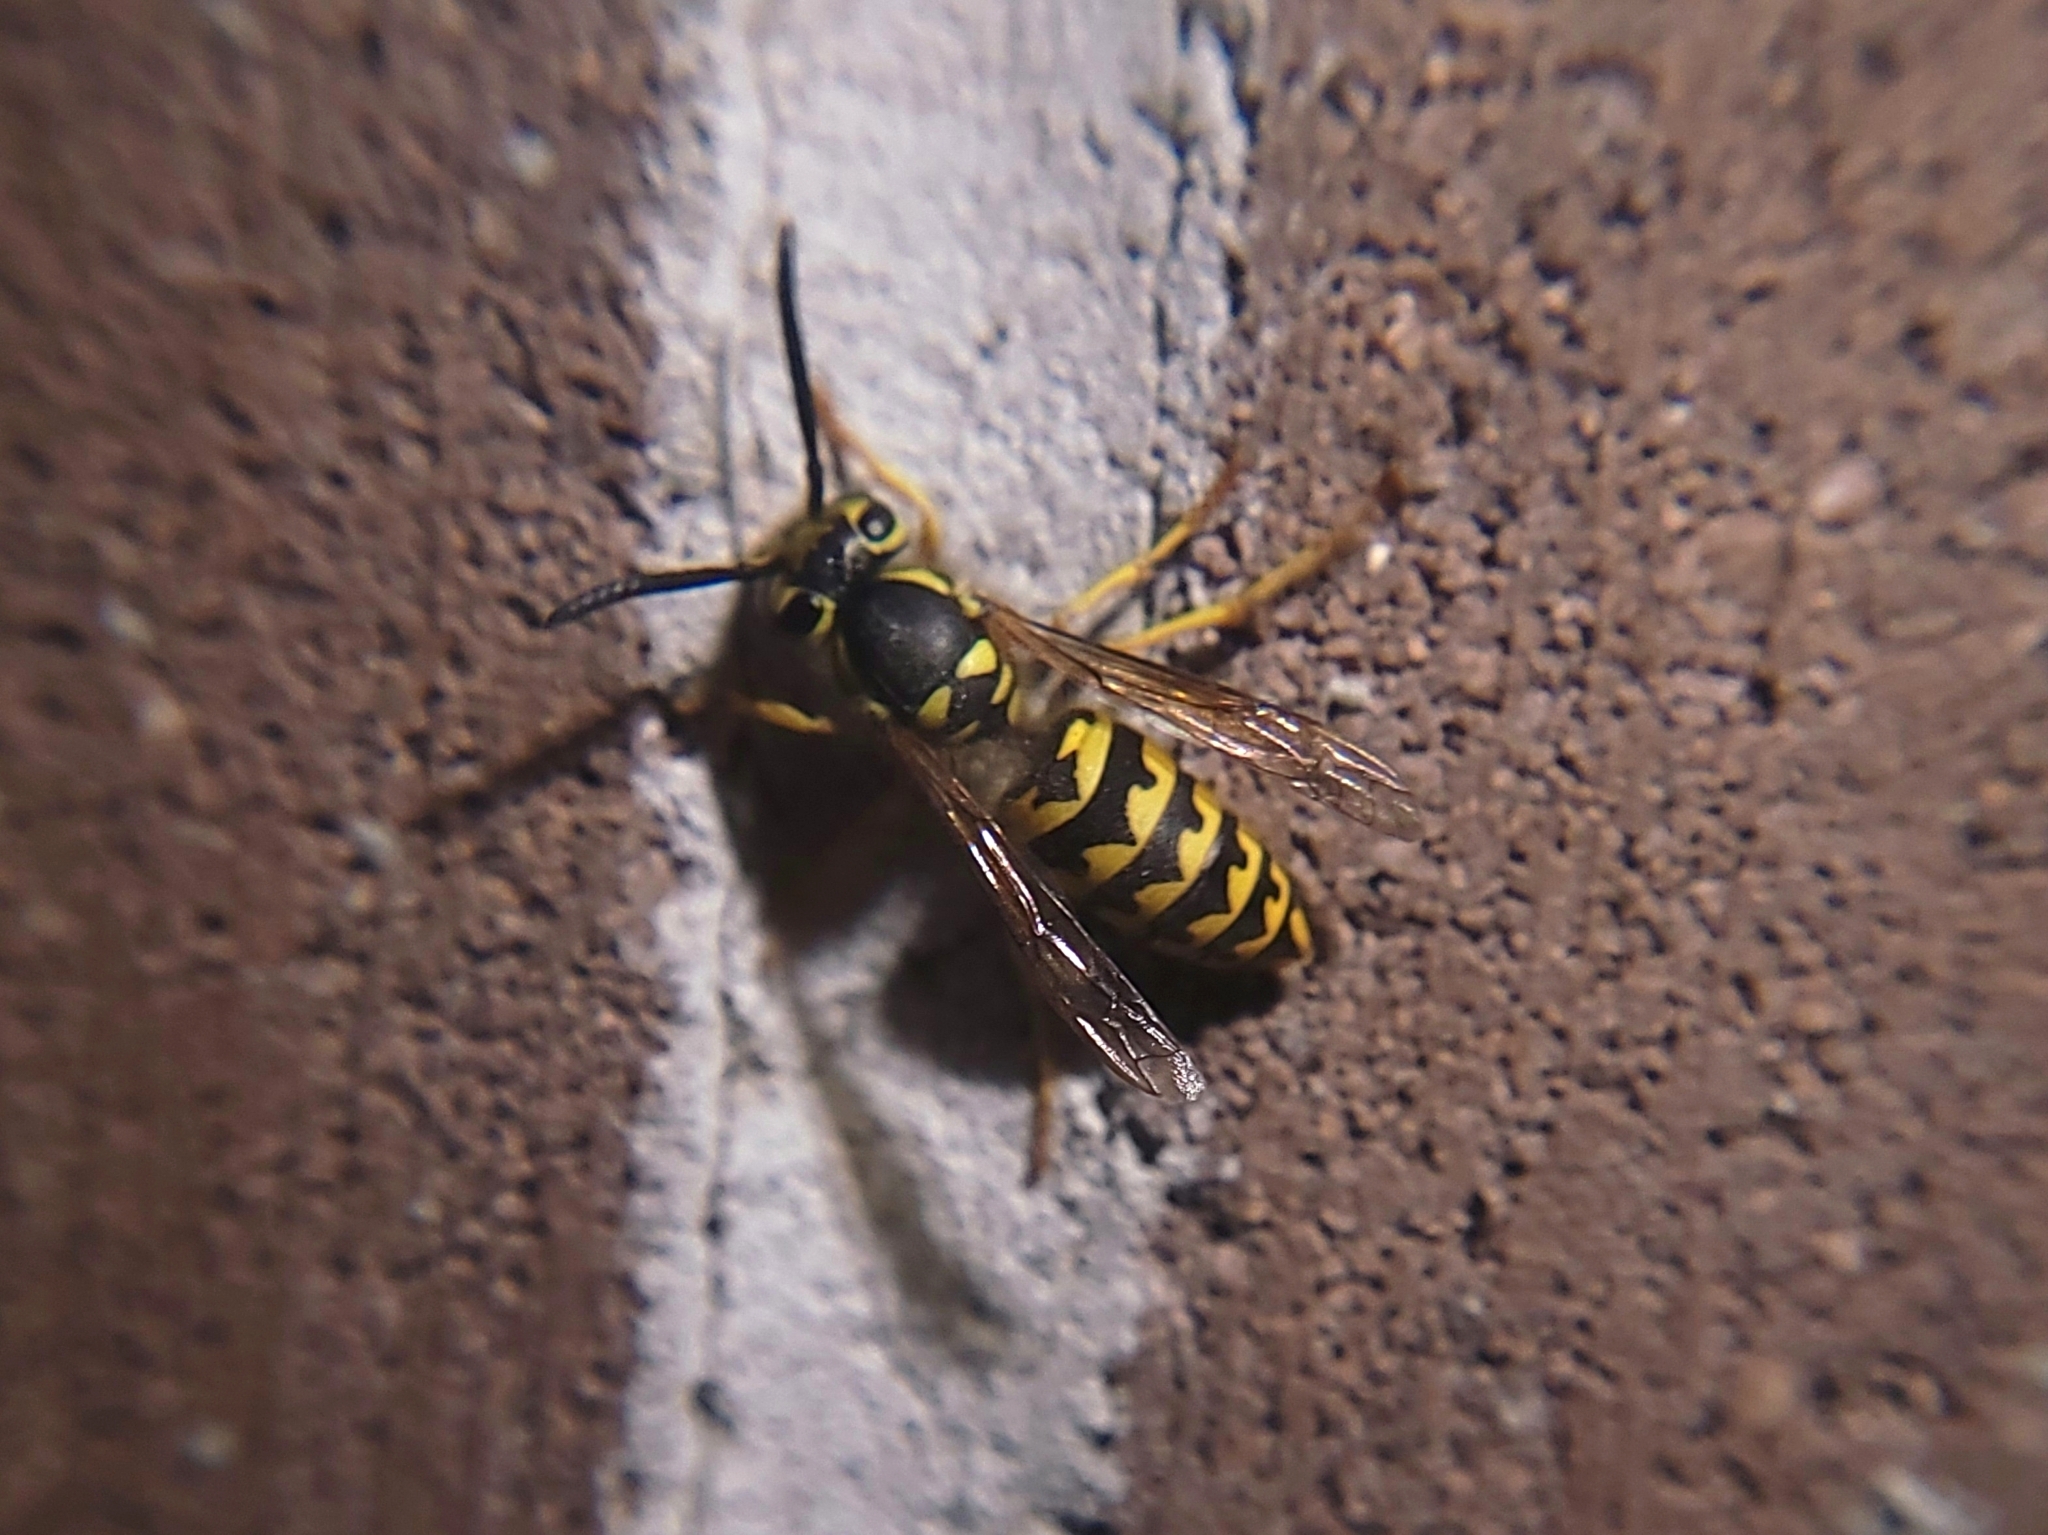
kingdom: Animalia
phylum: Arthropoda
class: Insecta
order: Hymenoptera
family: Vespidae
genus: Vespula
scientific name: Vespula pensylvanica
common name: Western yellowjacket
